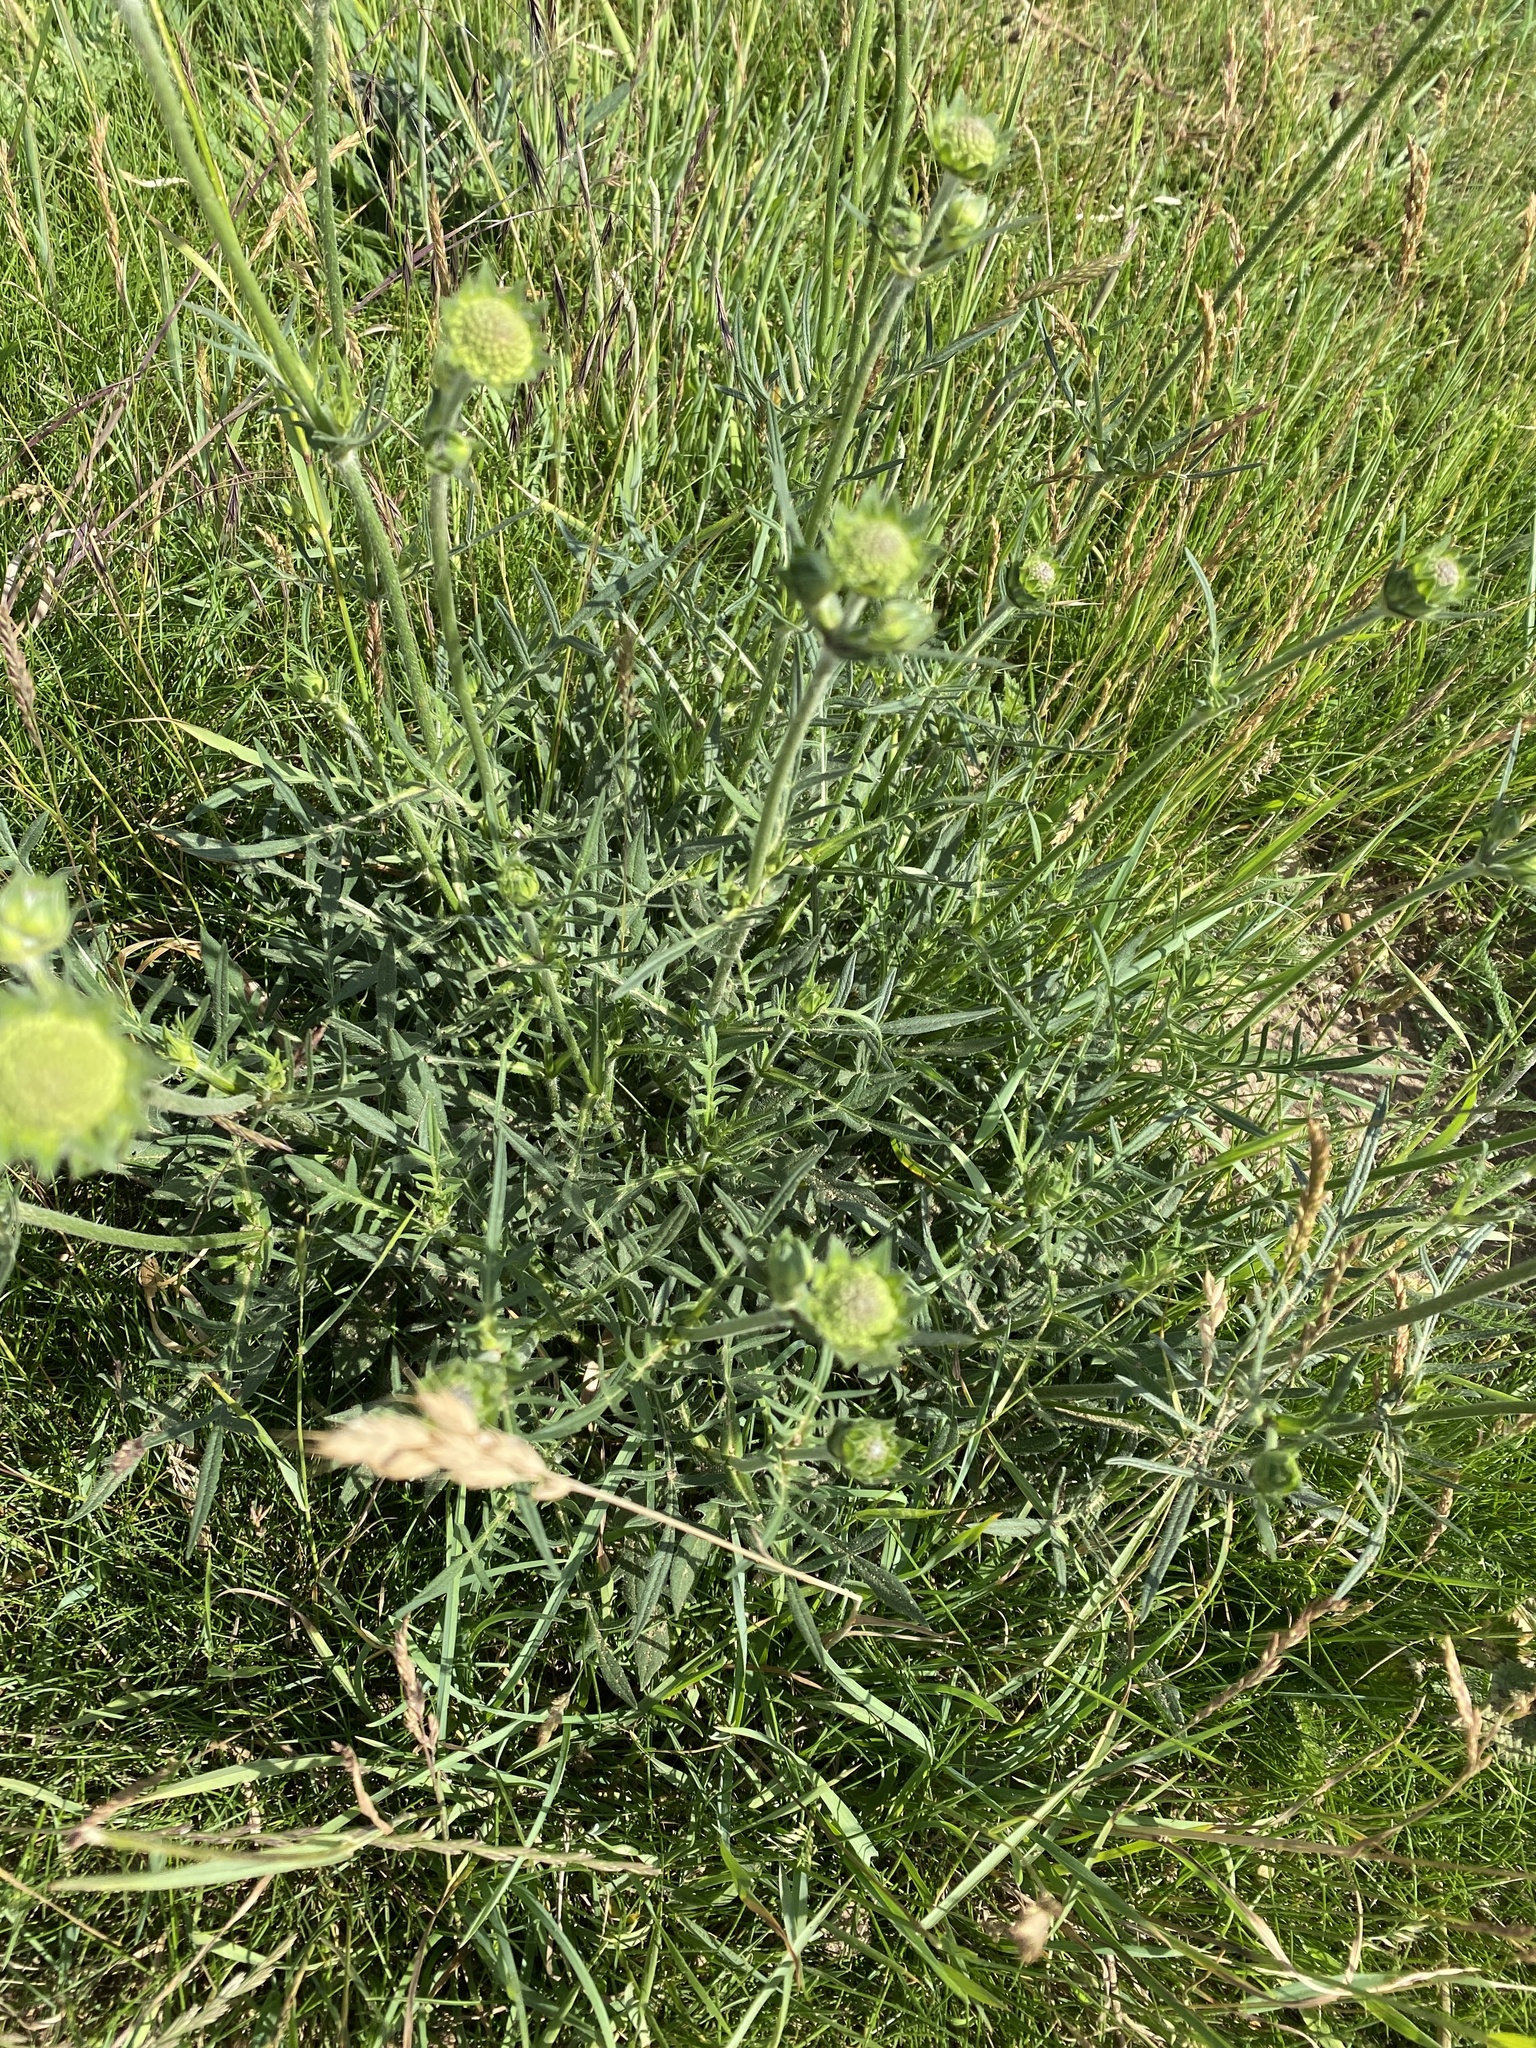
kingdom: Plantae
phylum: Tracheophyta
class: Magnoliopsida
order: Dipsacales
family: Caprifoliaceae
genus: Knautia
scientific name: Knautia arvensis
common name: Field scabiosa
